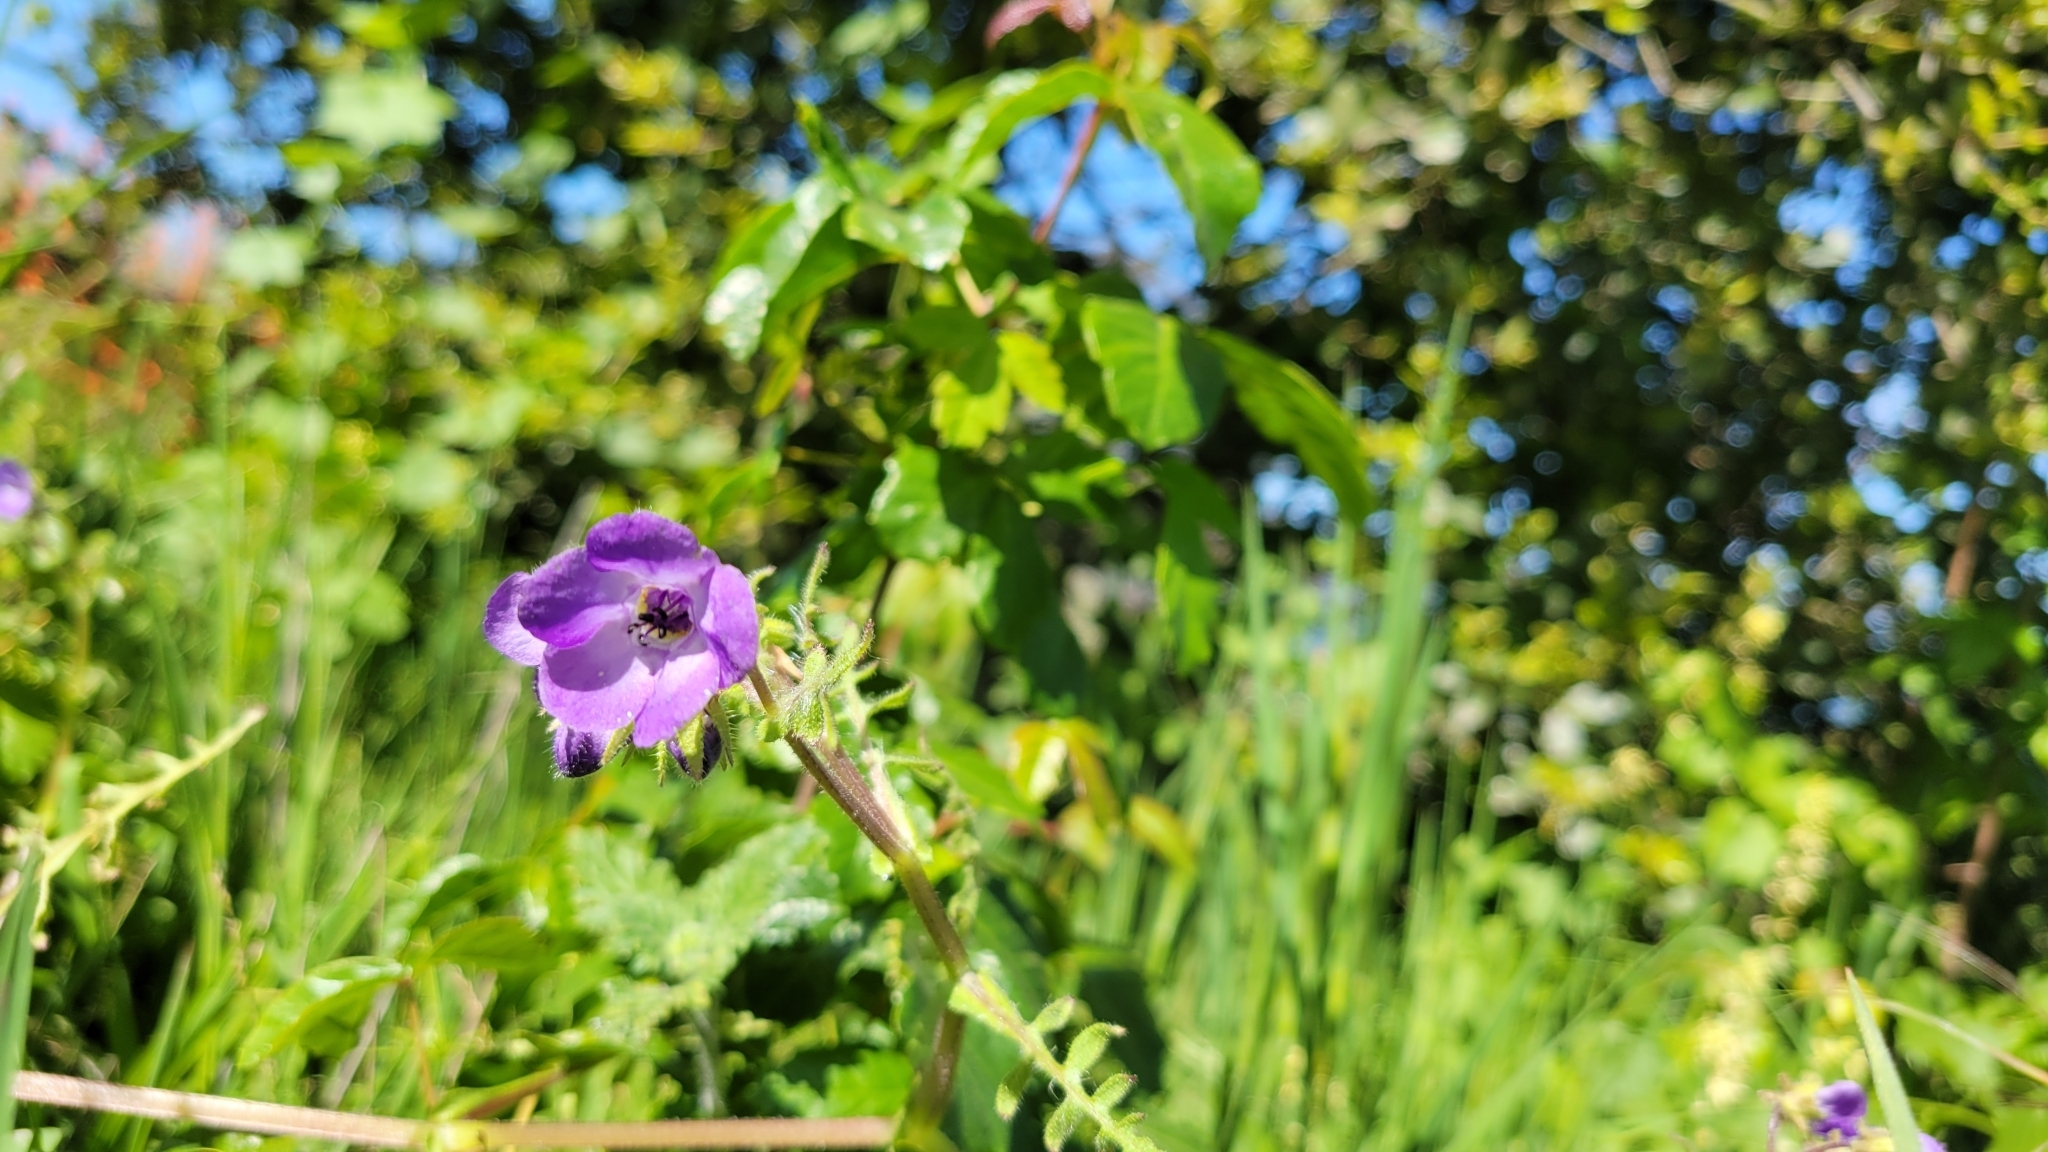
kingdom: Plantae
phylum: Tracheophyta
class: Magnoliopsida
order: Boraginales
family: Hydrophyllaceae
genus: Pholistoma
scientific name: Pholistoma auritum
